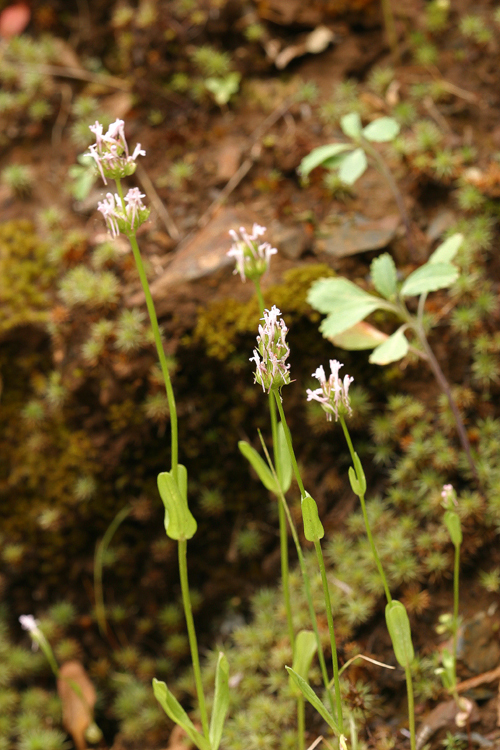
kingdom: Plantae
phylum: Tracheophyta
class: Magnoliopsida
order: Dipsacales
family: Caprifoliaceae
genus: Plectritis
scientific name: Plectritis ciliosa
